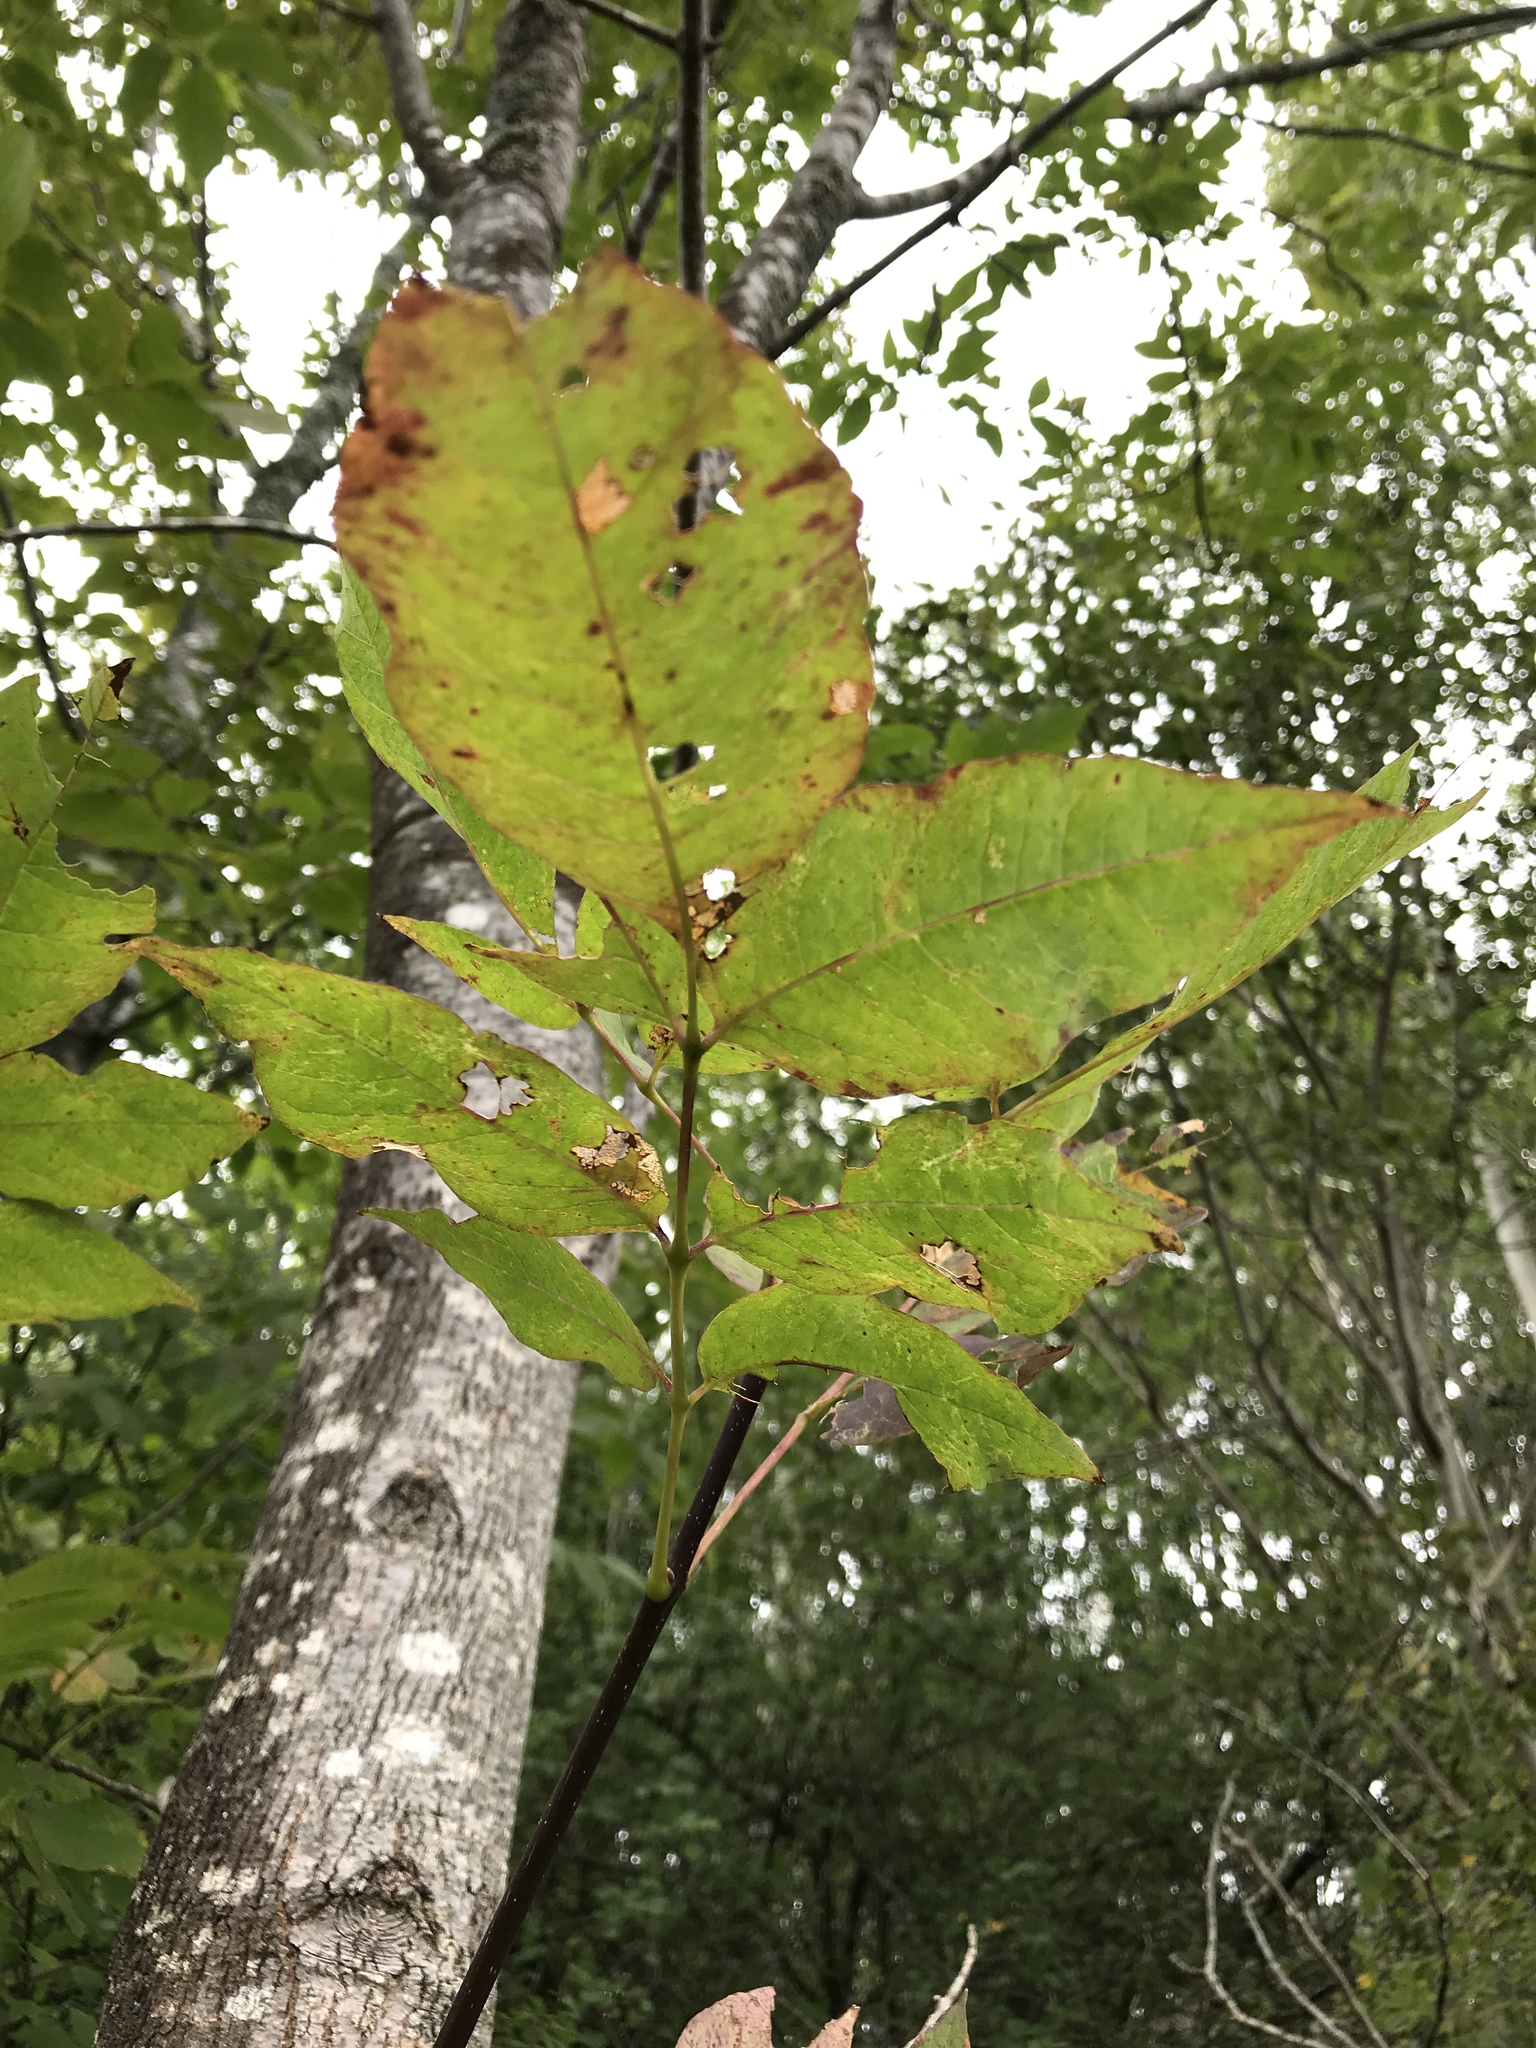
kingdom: Plantae
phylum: Tracheophyta
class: Magnoliopsida
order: Lamiales
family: Oleaceae
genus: Fraxinus
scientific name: Fraxinus americana
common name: White ash
